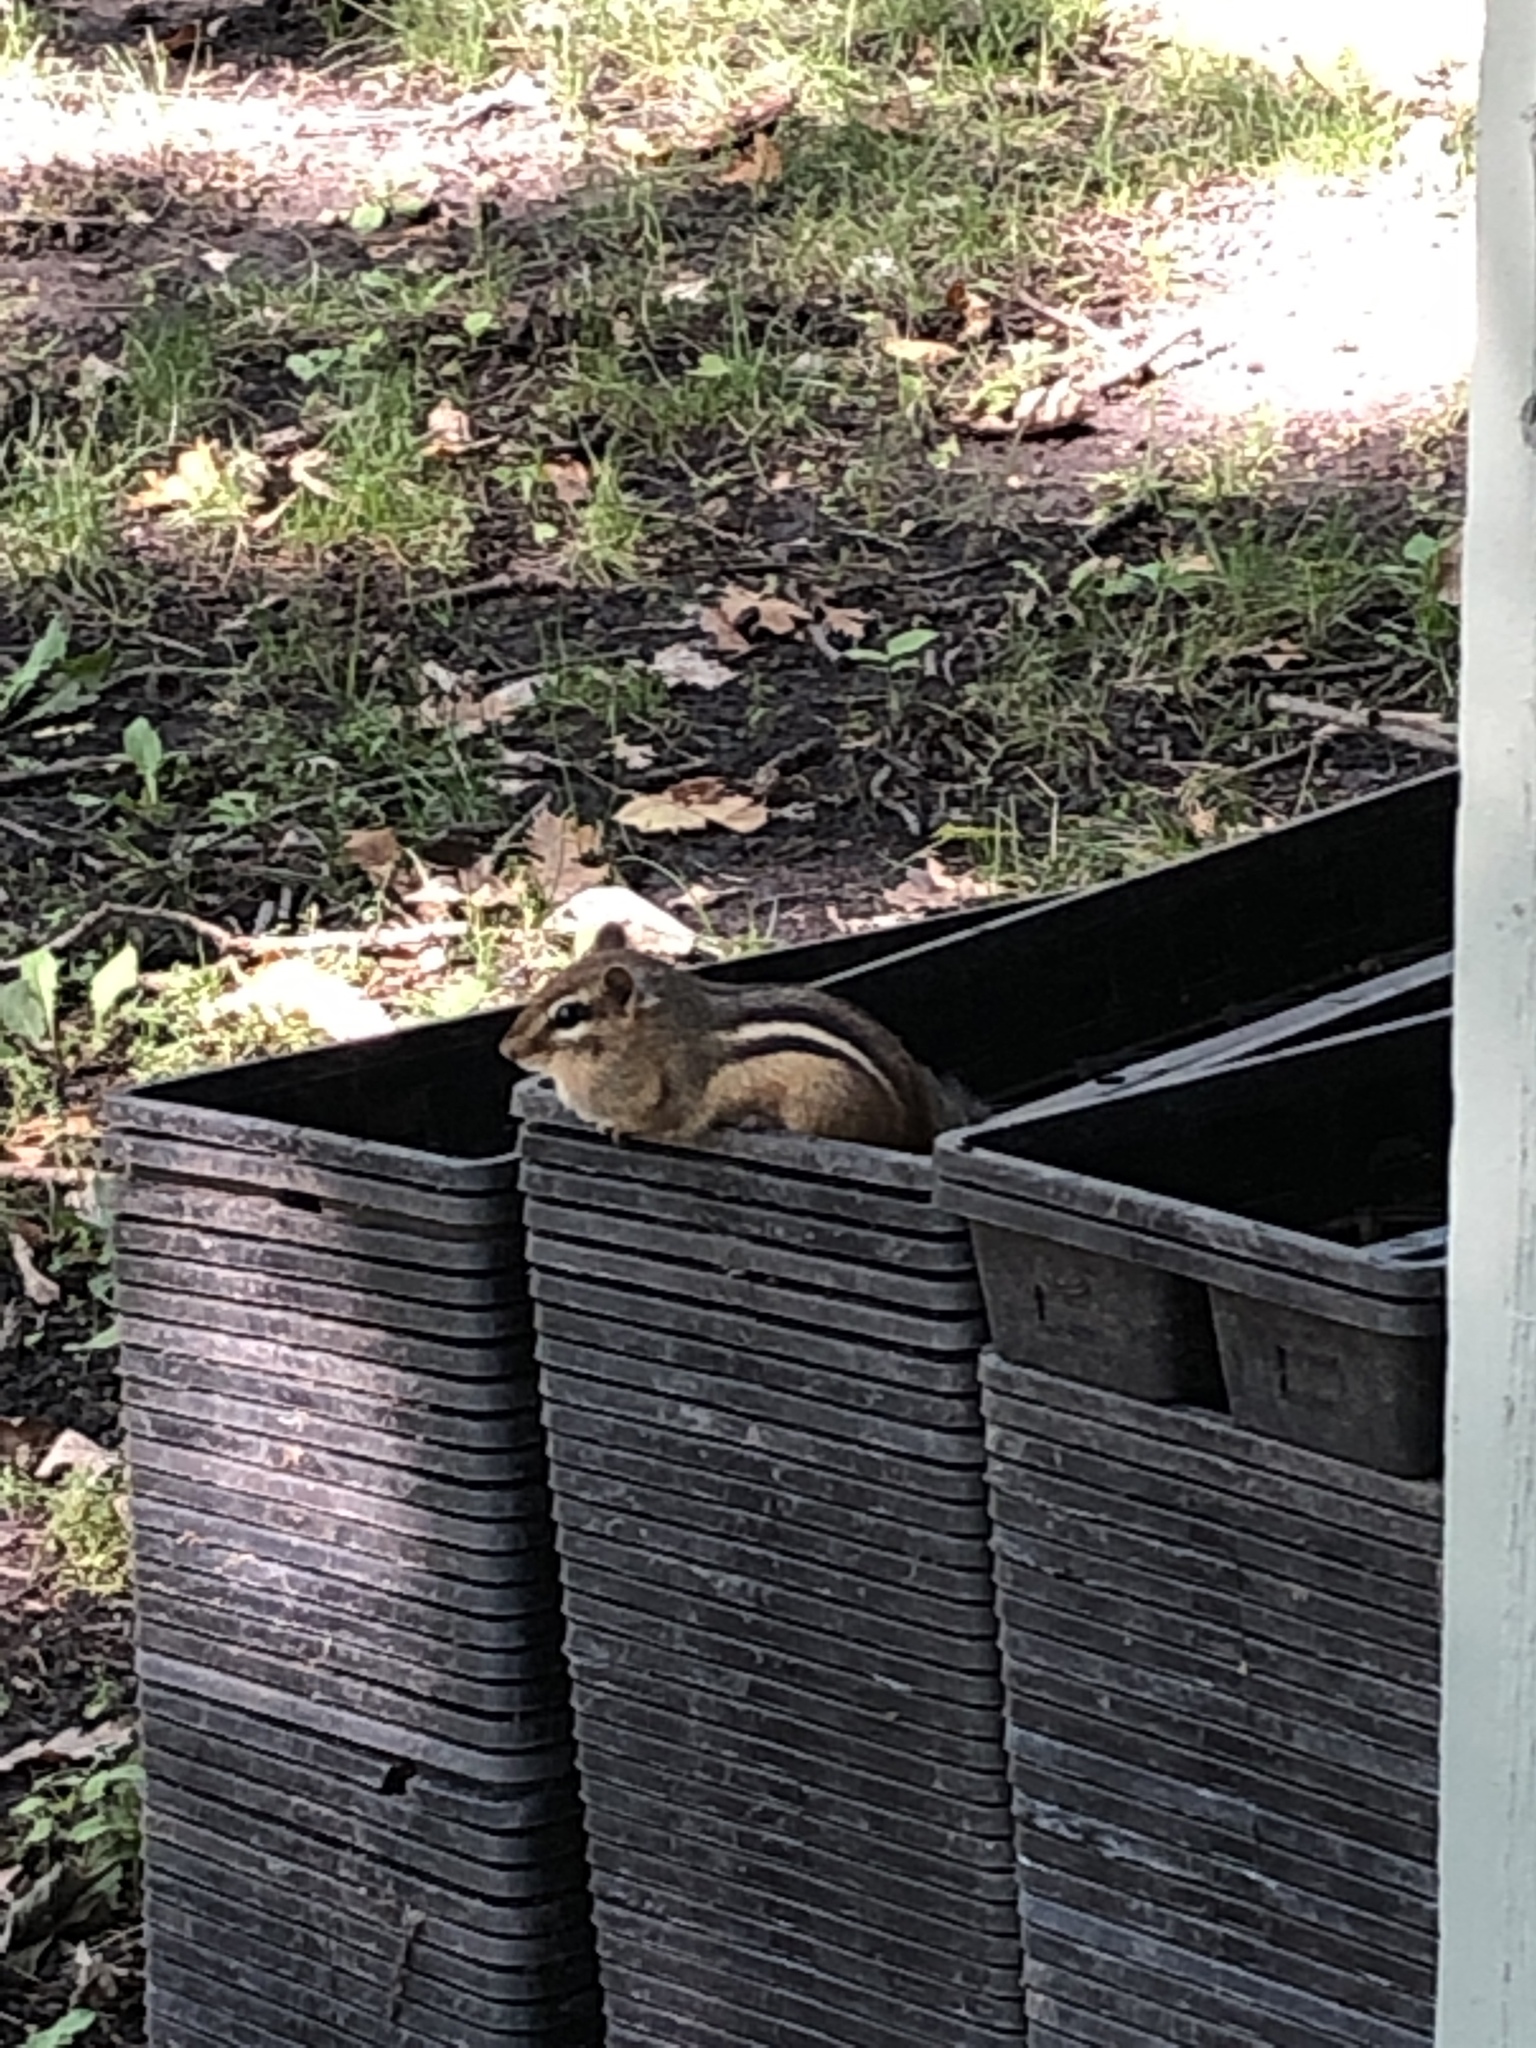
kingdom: Animalia
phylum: Chordata
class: Mammalia
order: Rodentia
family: Sciuridae
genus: Tamias
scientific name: Tamias striatus
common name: Eastern chipmunk
